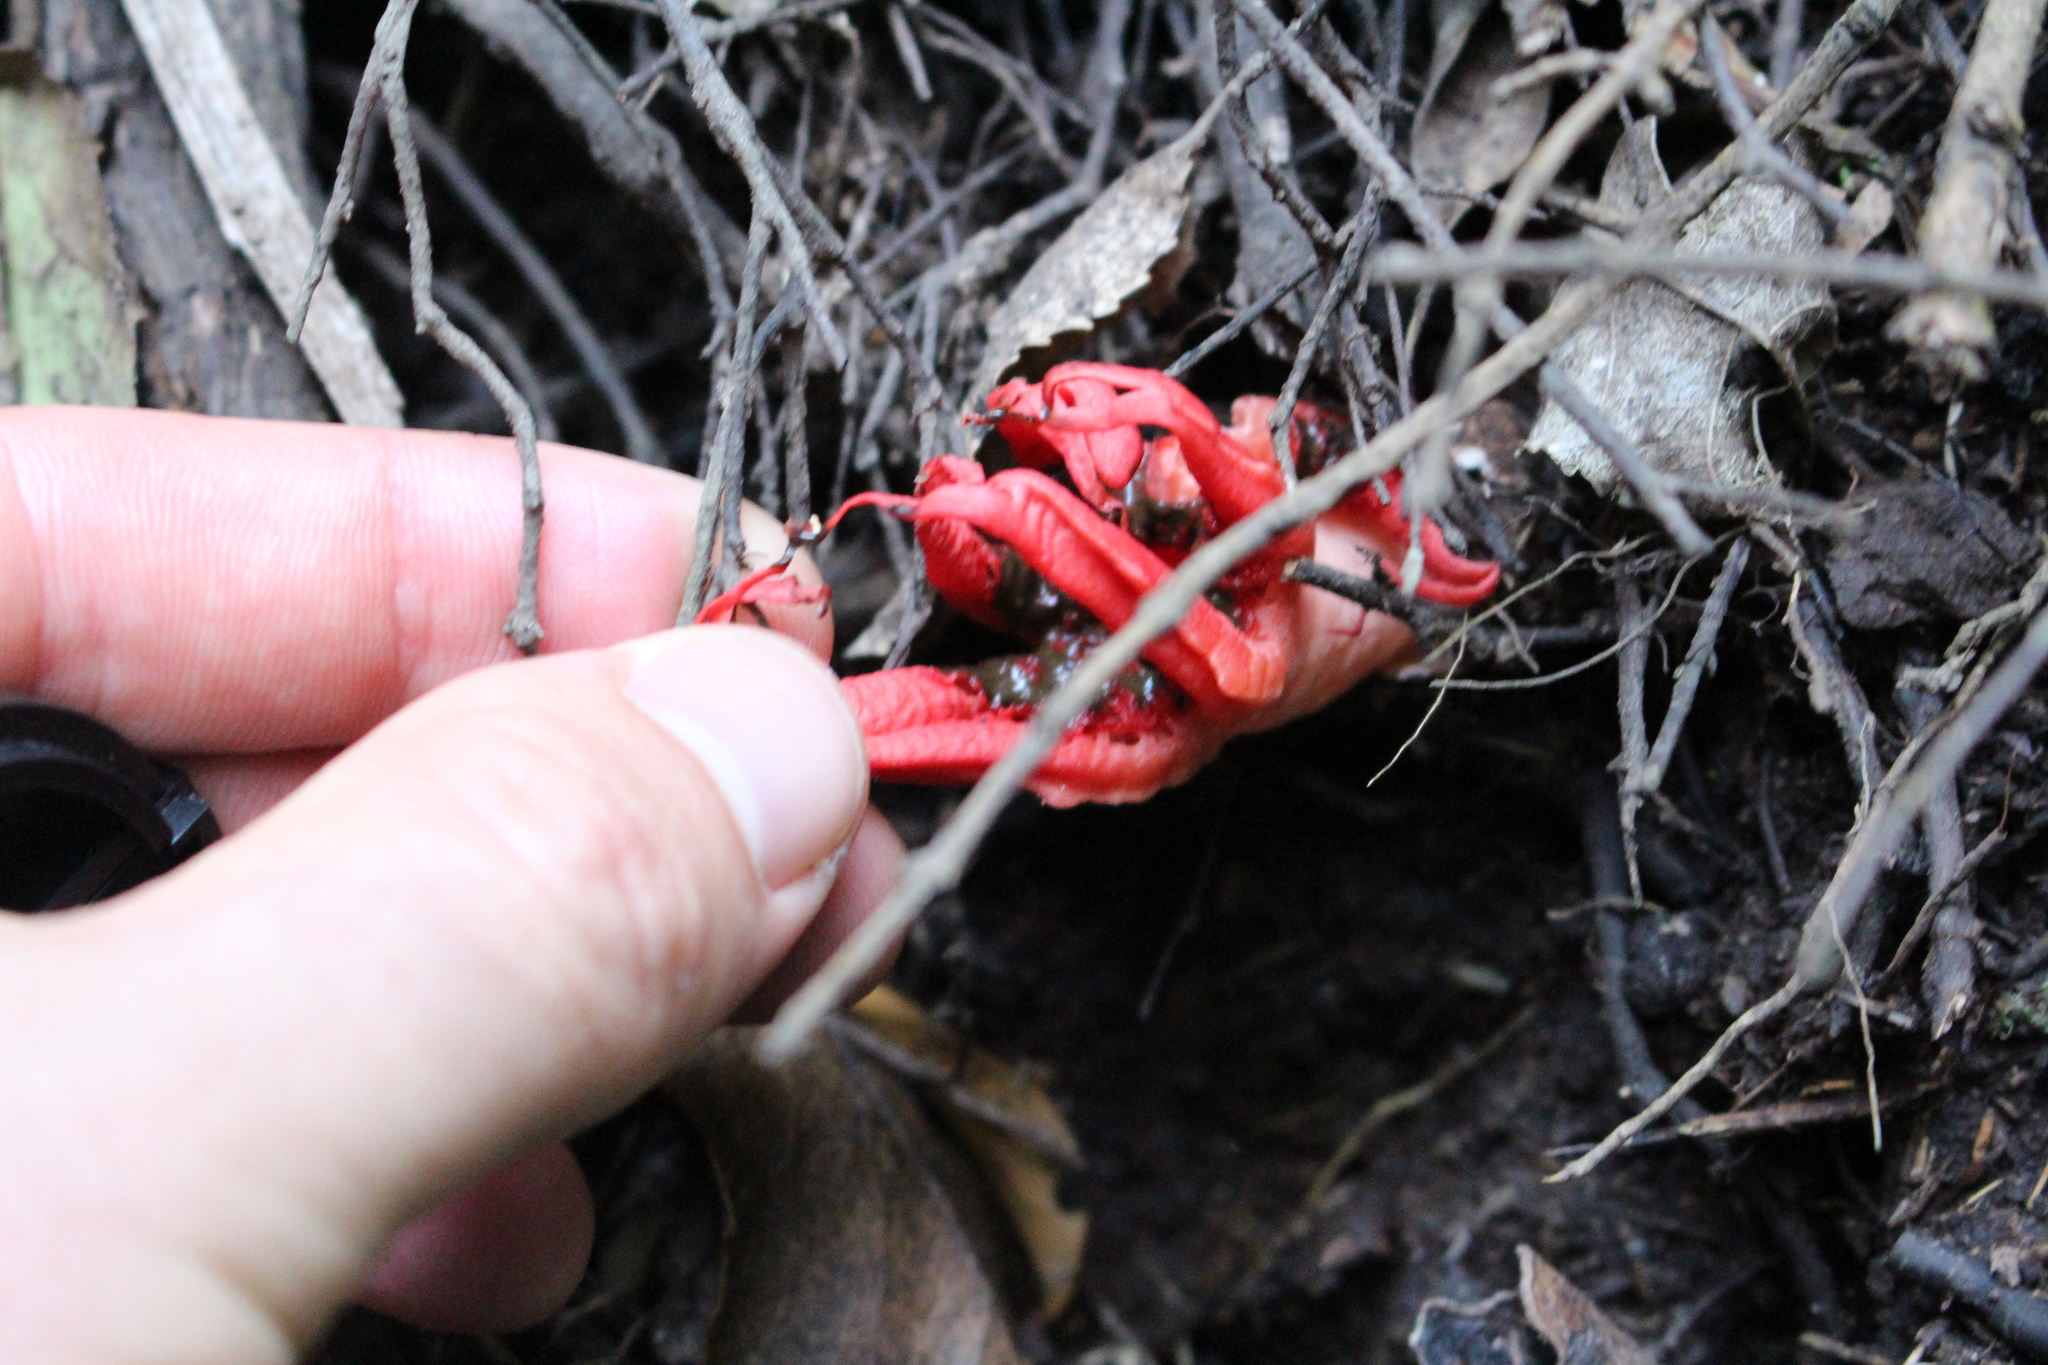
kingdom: Fungi
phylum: Basidiomycota
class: Agaricomycetes
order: Phallales
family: Phallaceae
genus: Aseroe
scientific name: Aseroe rubra
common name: Starfish fungus
